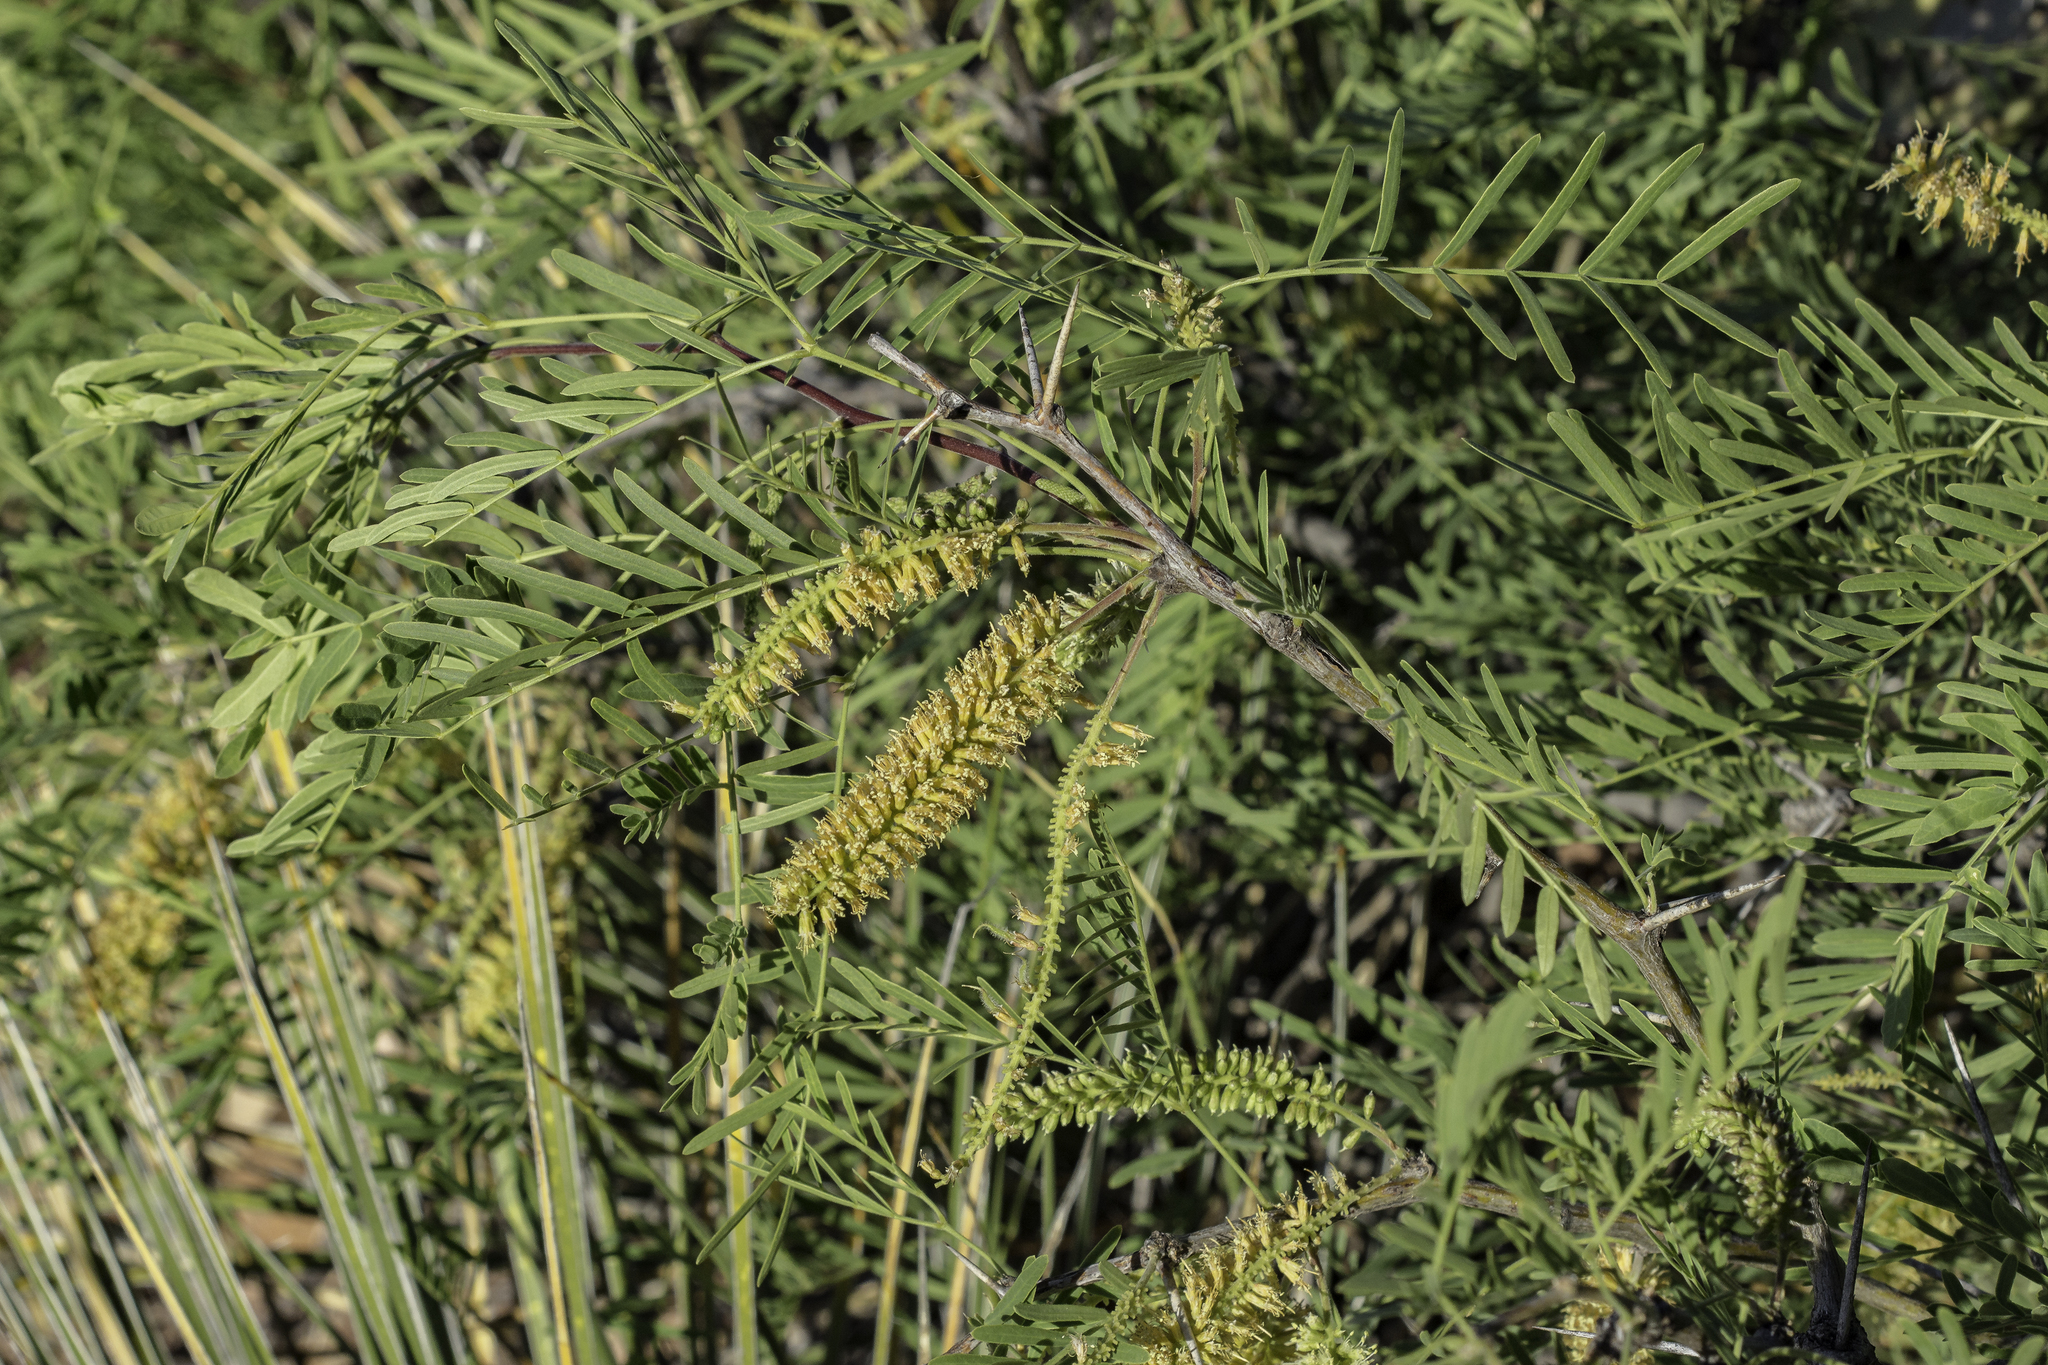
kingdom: Plantae
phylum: Tracheophyta
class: Magnoliopsida
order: Fabales
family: Fabaceae
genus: Prosopis
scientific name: Prosopis glandulosa
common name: Honey mesquite
